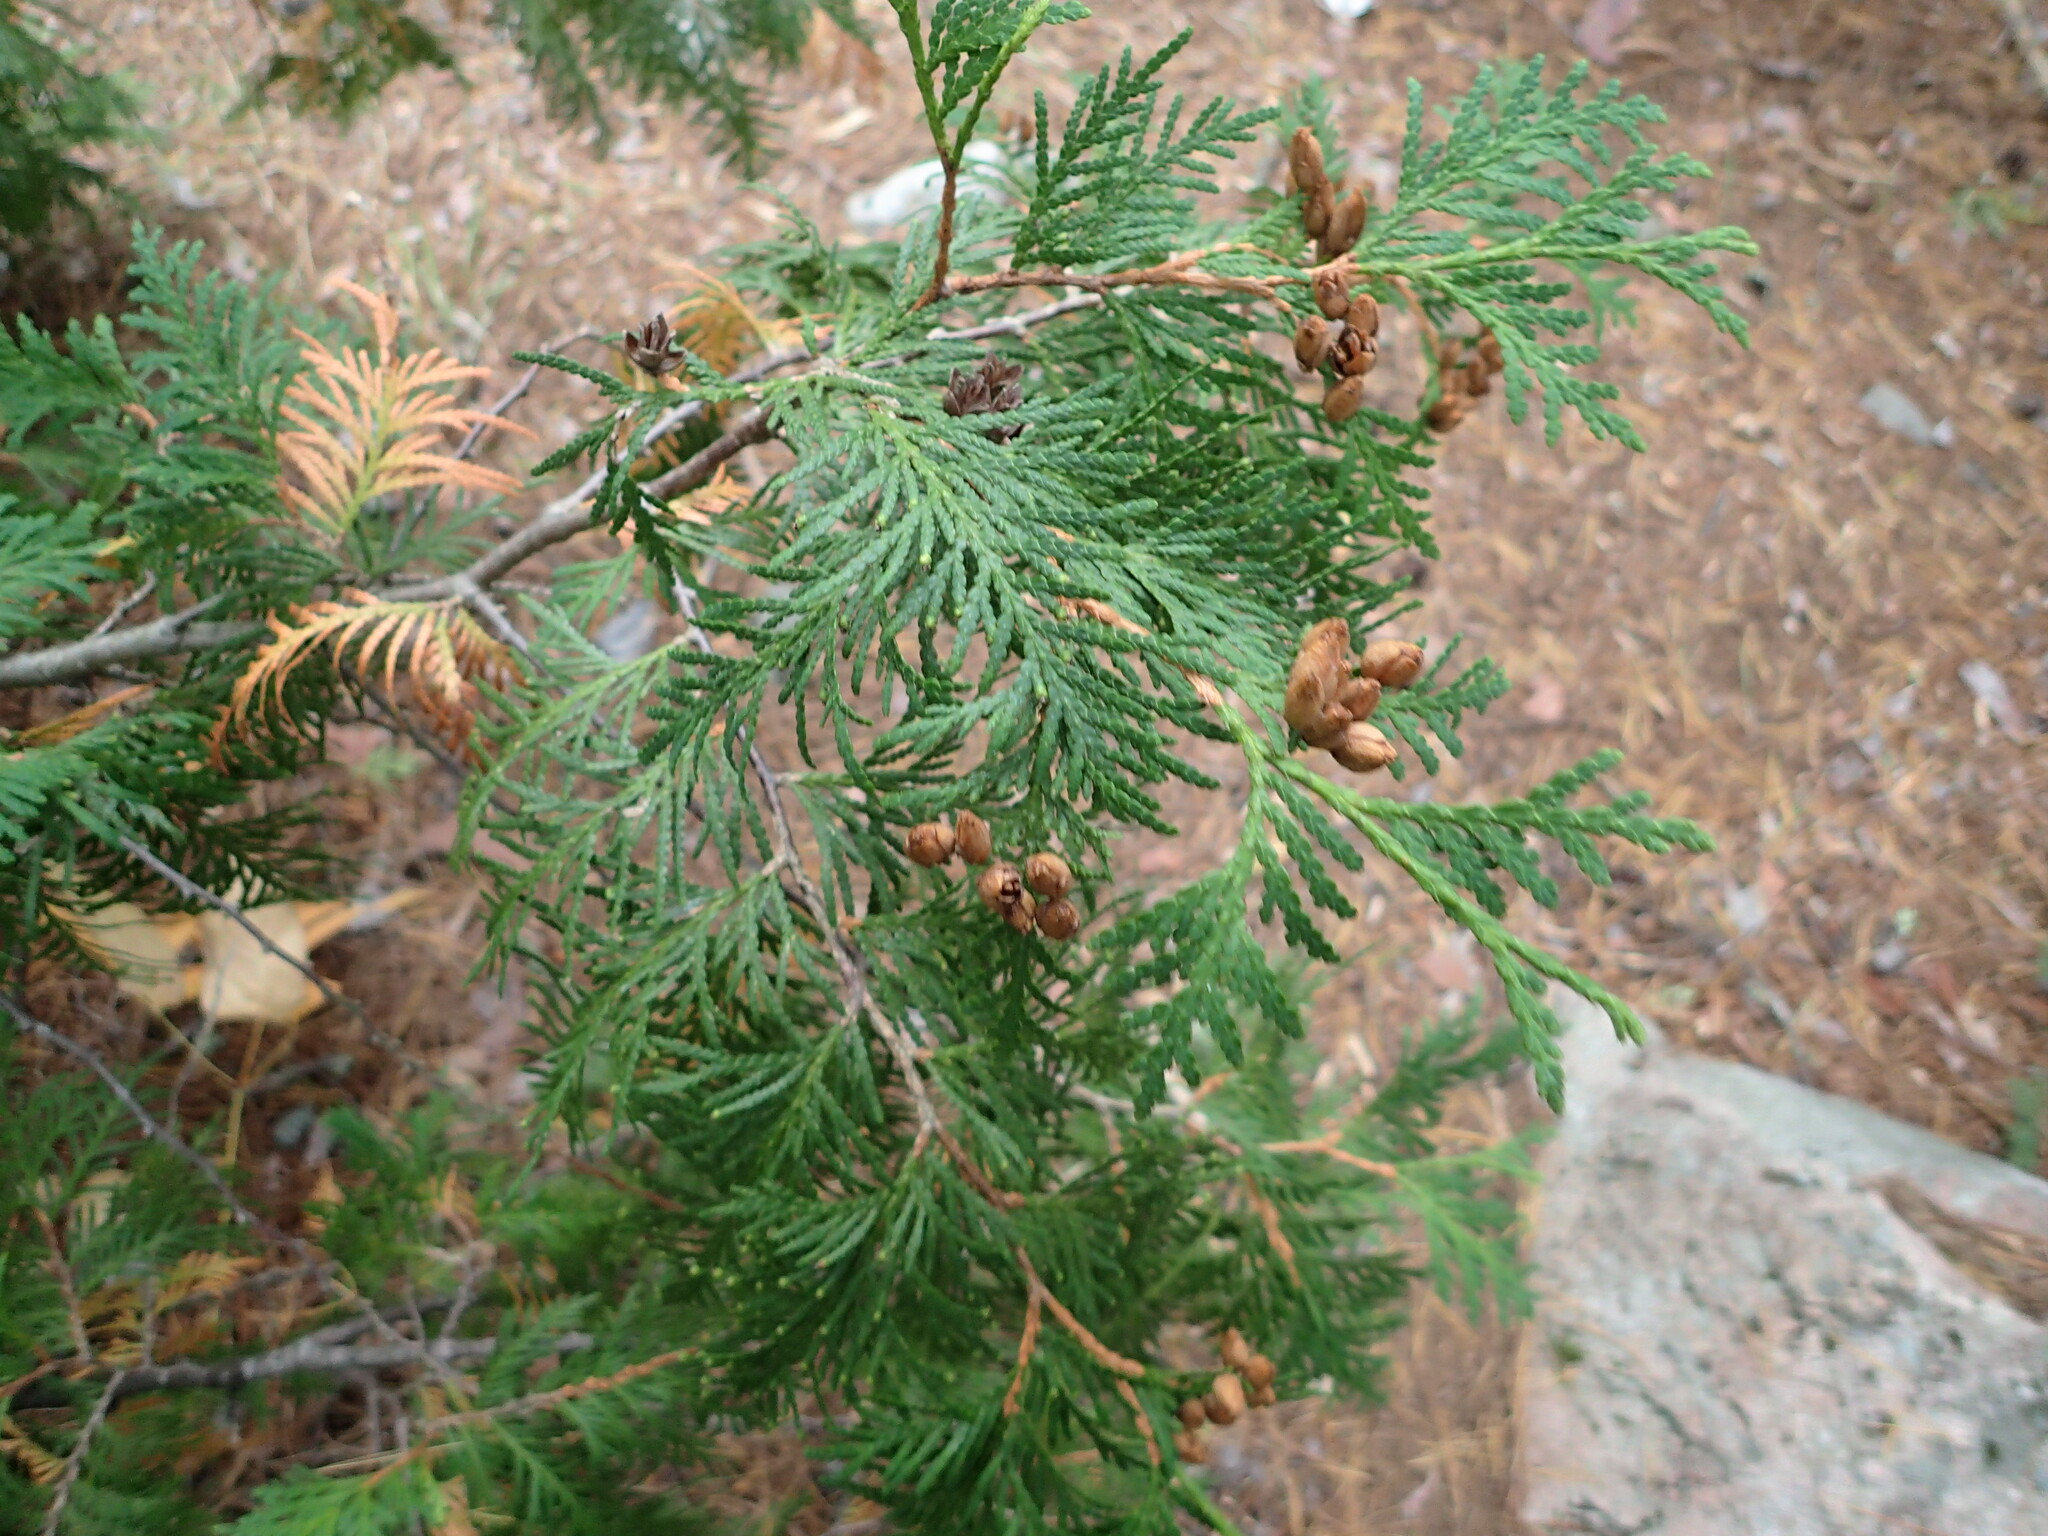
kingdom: Plantae
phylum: Tracheophyta
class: Pinopsida
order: Pinales
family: Cupressaceae
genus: Thuja
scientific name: Thuja occidentalis
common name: Northern white-cedar
